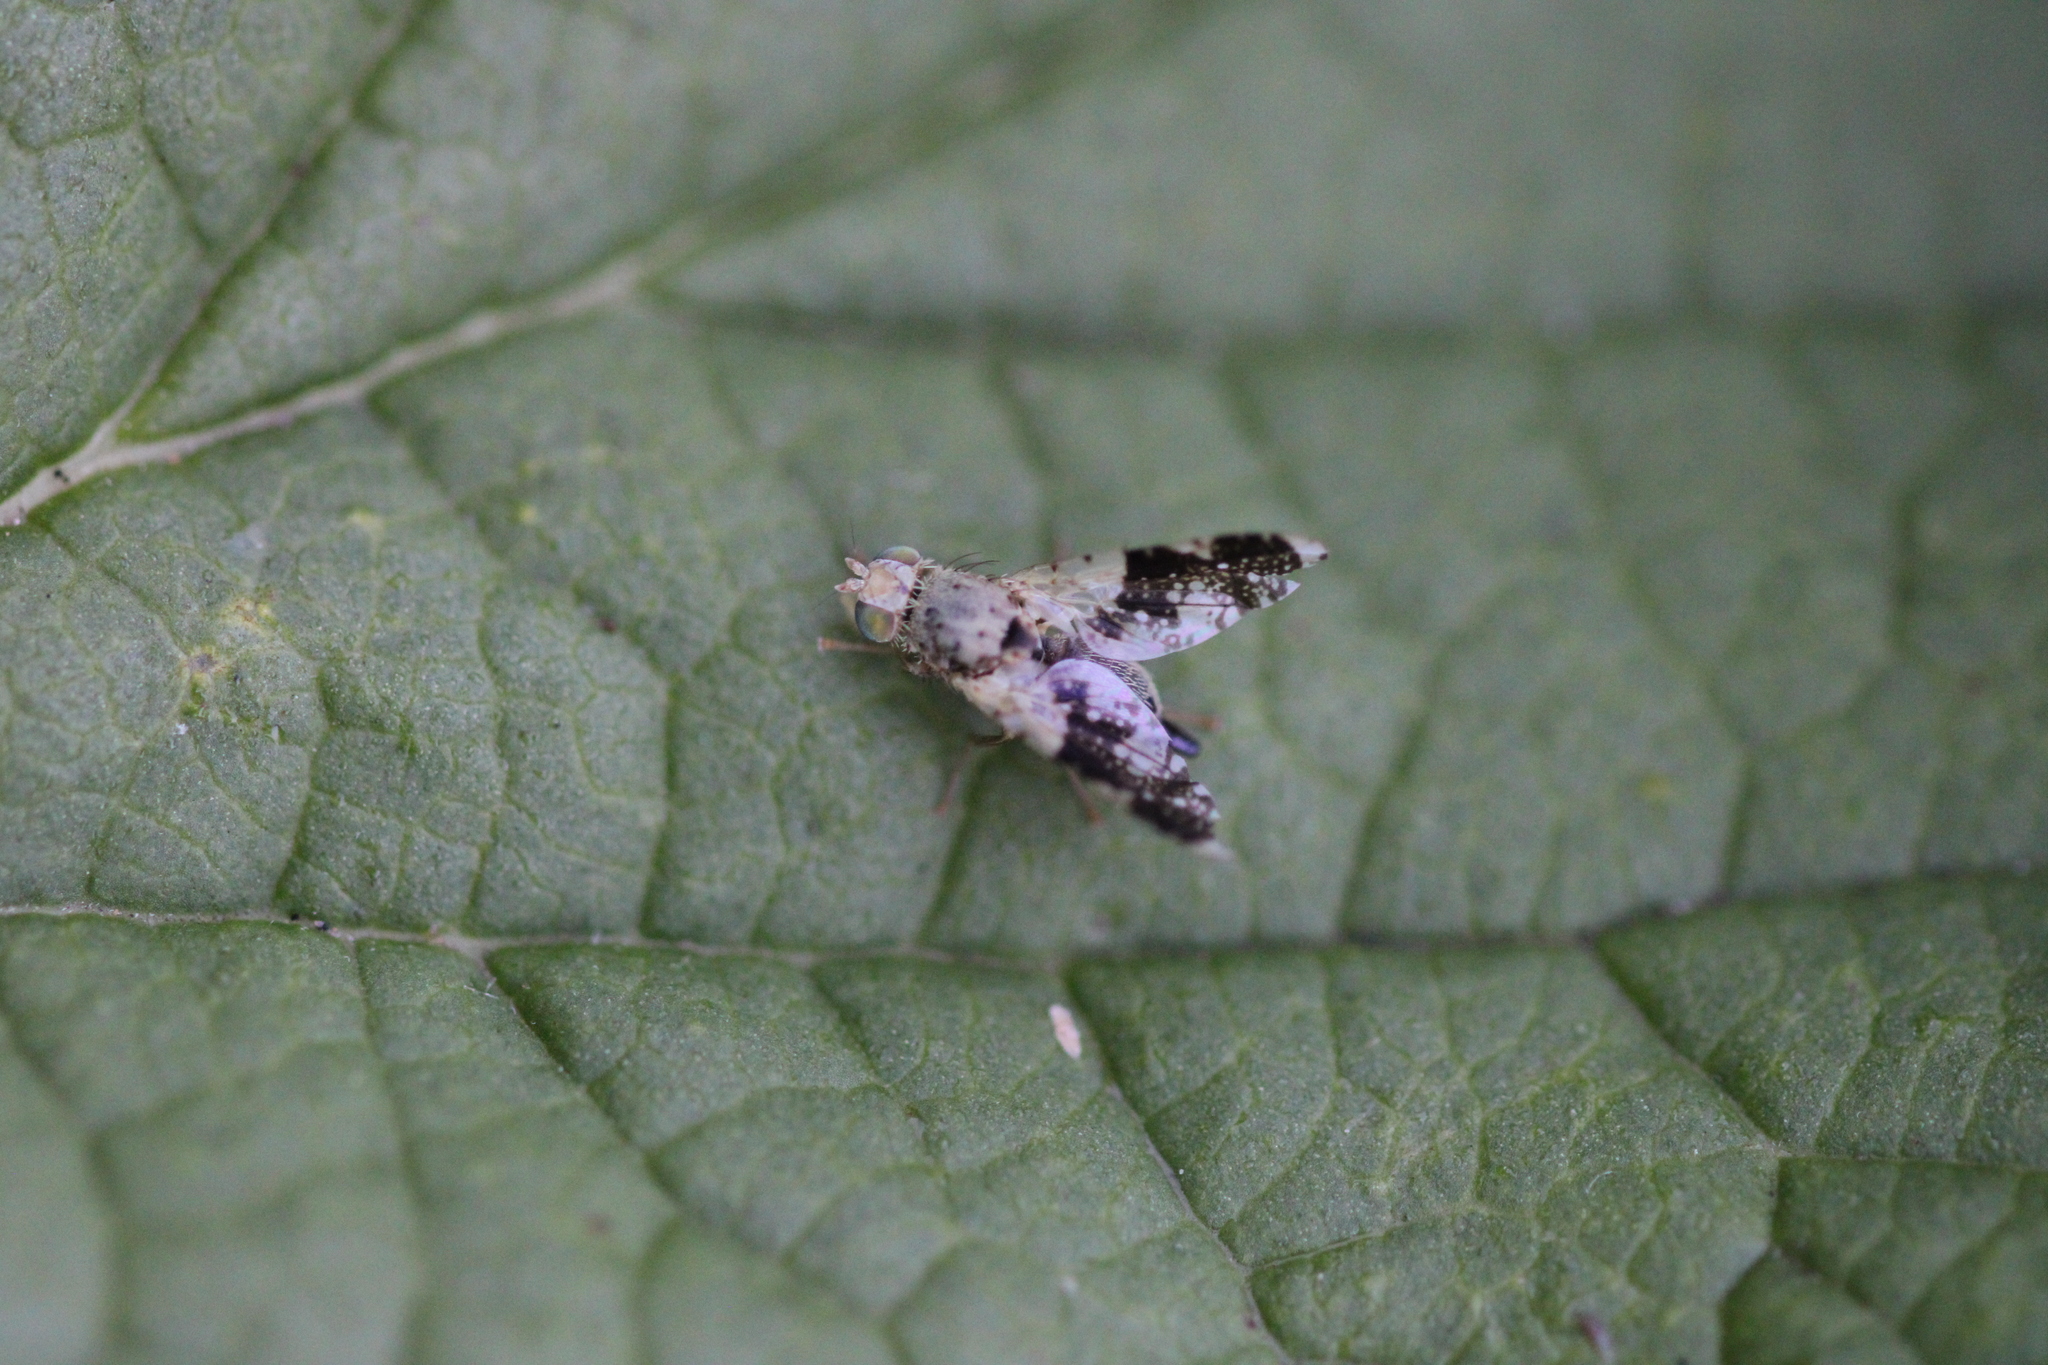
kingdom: Animalia
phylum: Arthropoda
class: Insecta
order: Diptera
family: Tephritidae
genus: Tephritis
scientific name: Tephritis formosa
